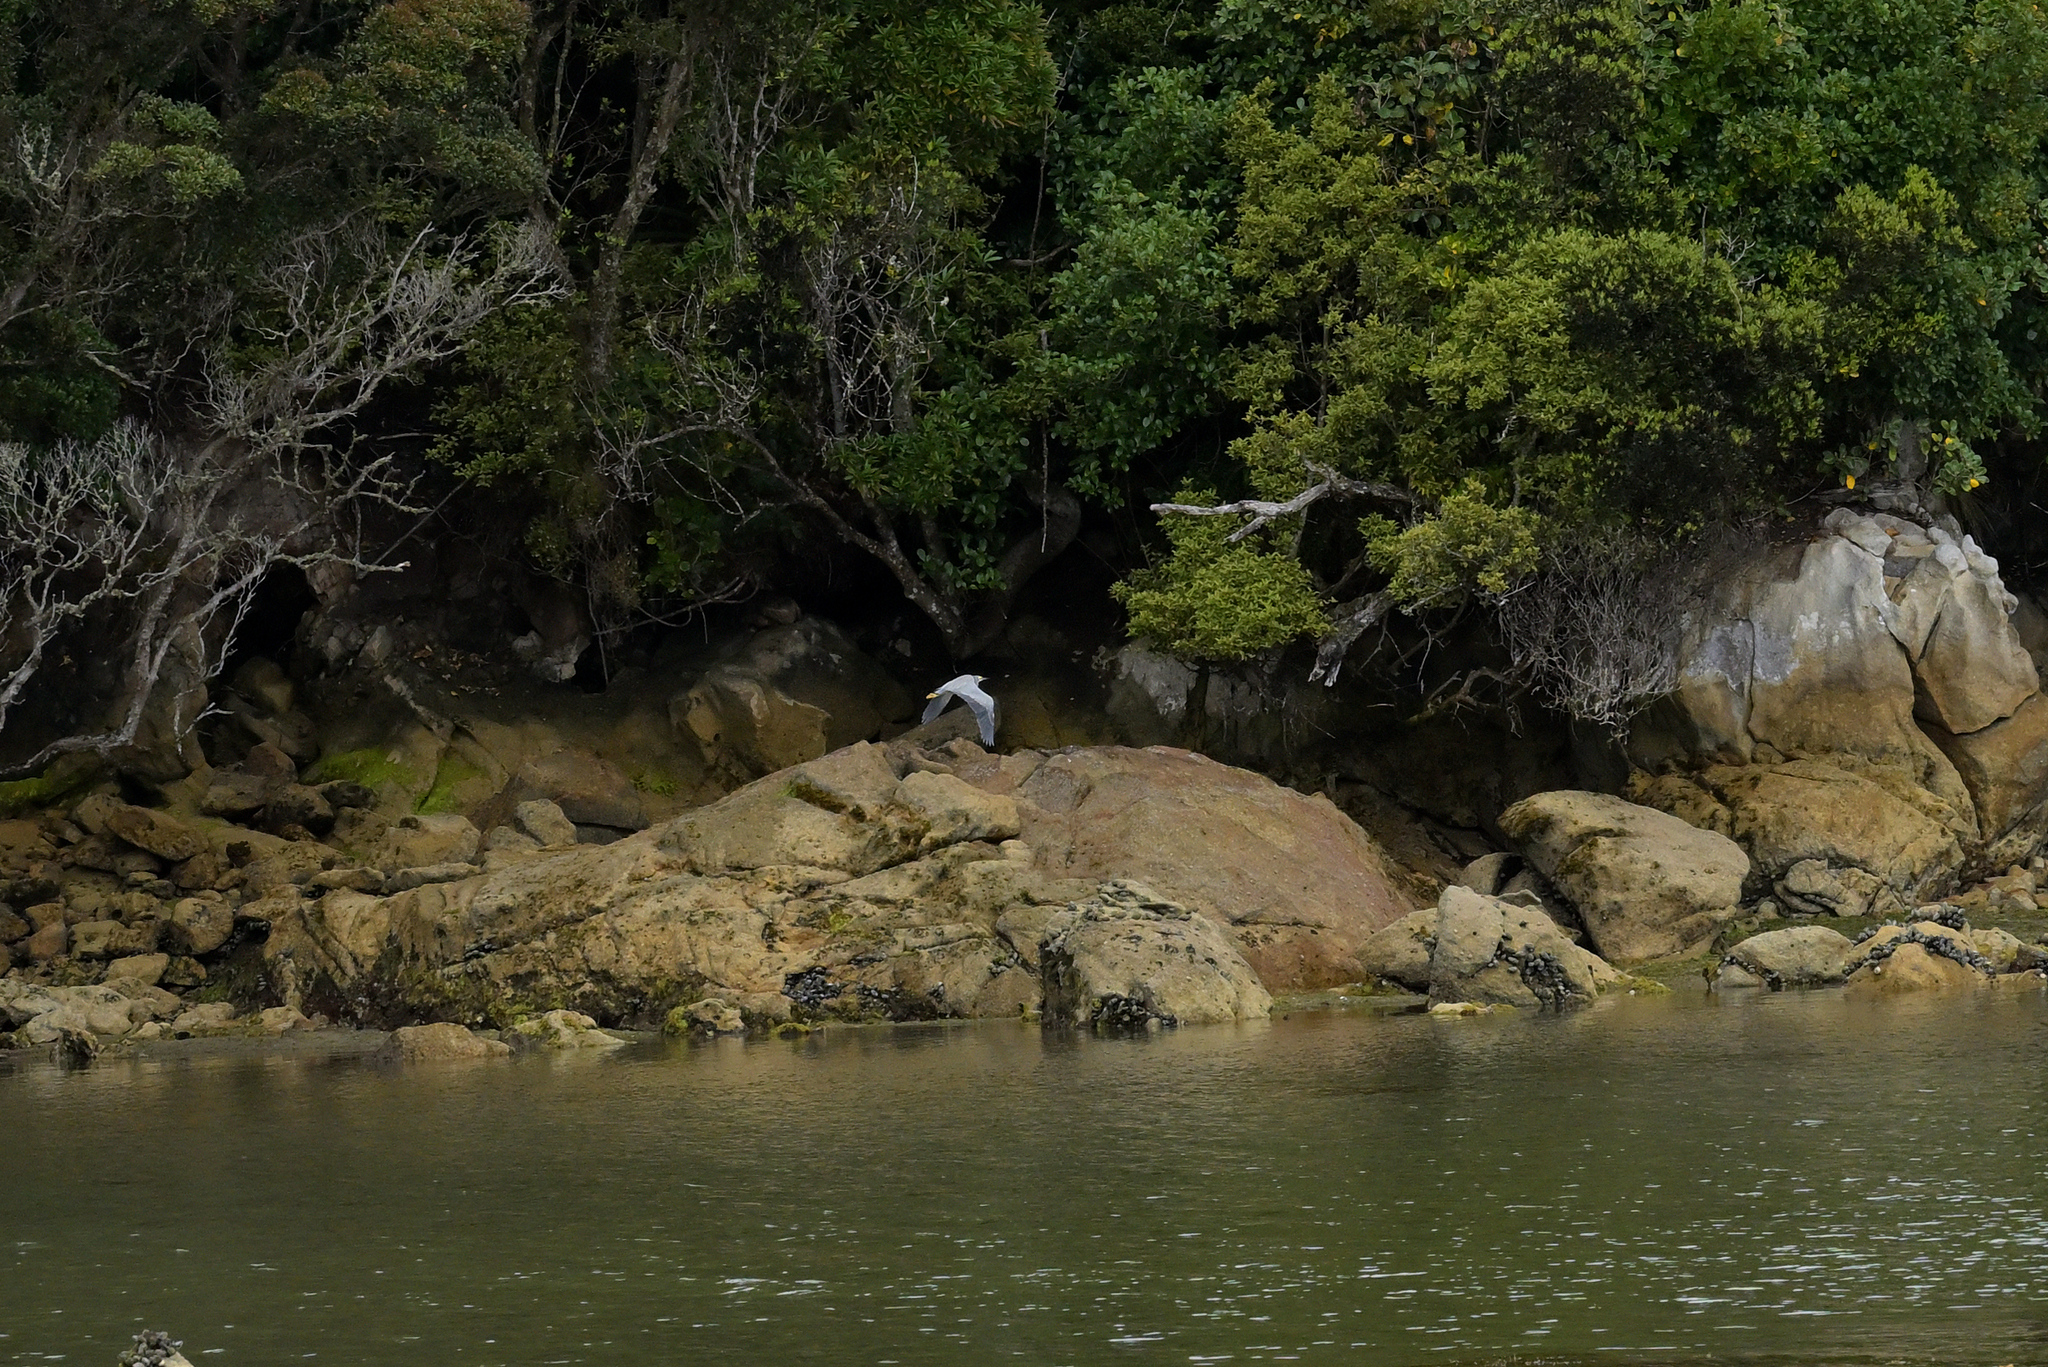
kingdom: Animalia
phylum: Chordata
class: Aves
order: Pelecaniformes
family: Ardeidae
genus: Egretta
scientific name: Egretta novaehollandiae
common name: White-faced heron
